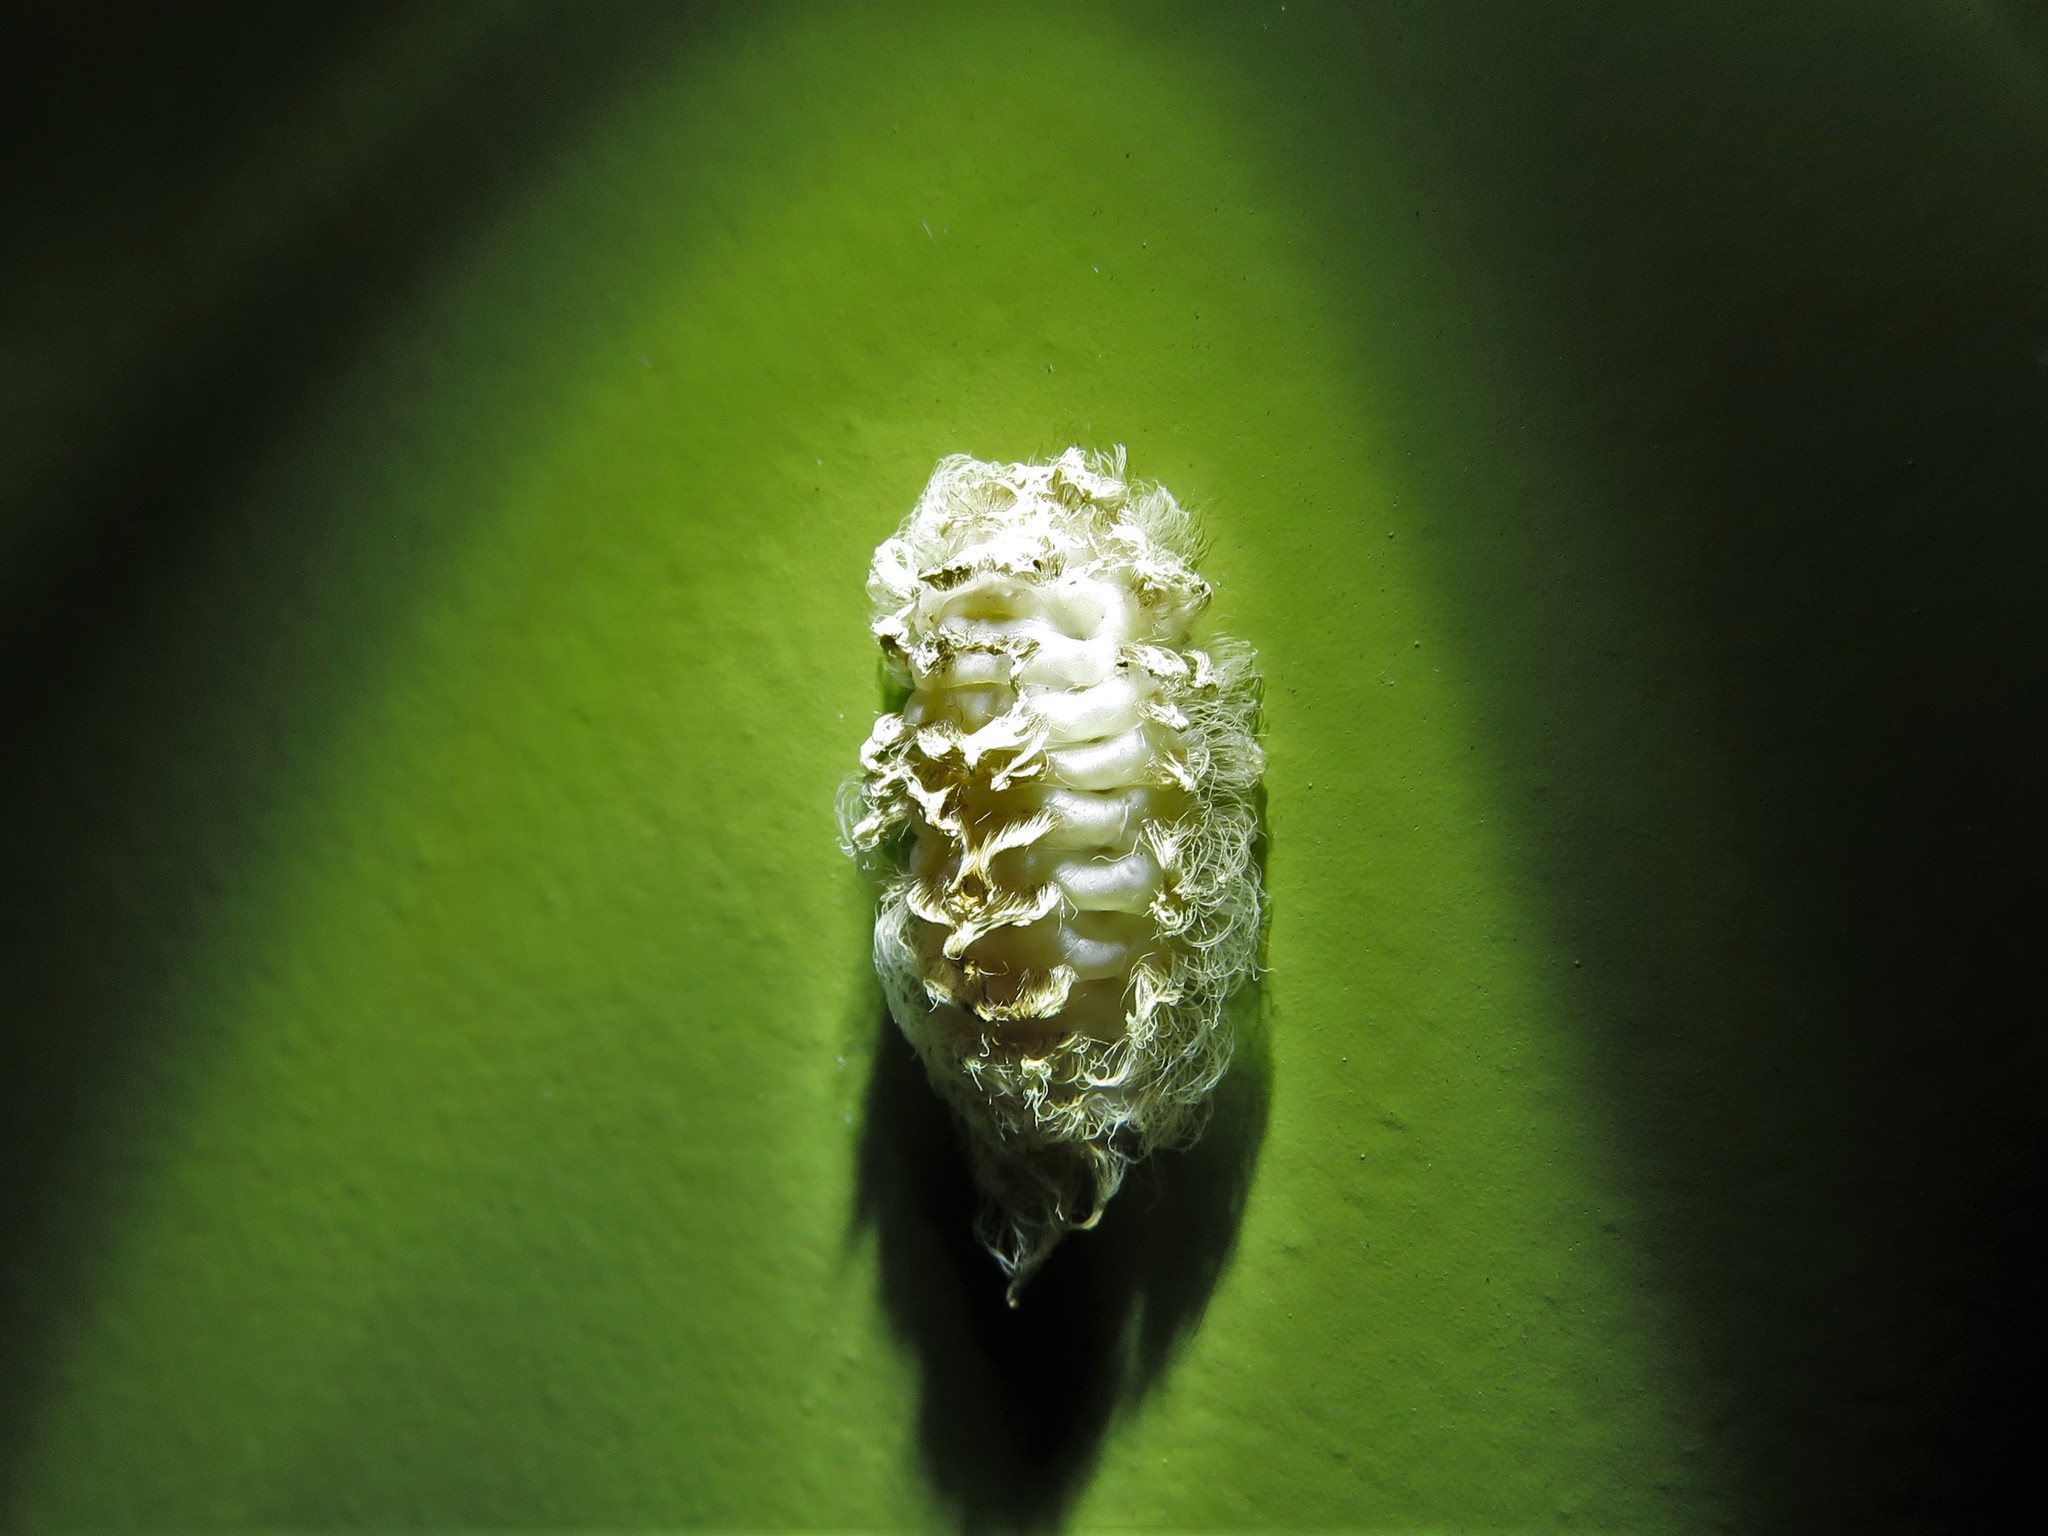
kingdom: Animalia
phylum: Arthropoda
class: Insecta
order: Lepidoptera
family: Megalopygidae
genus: Megalopyge
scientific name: Megalopyge opercularis
